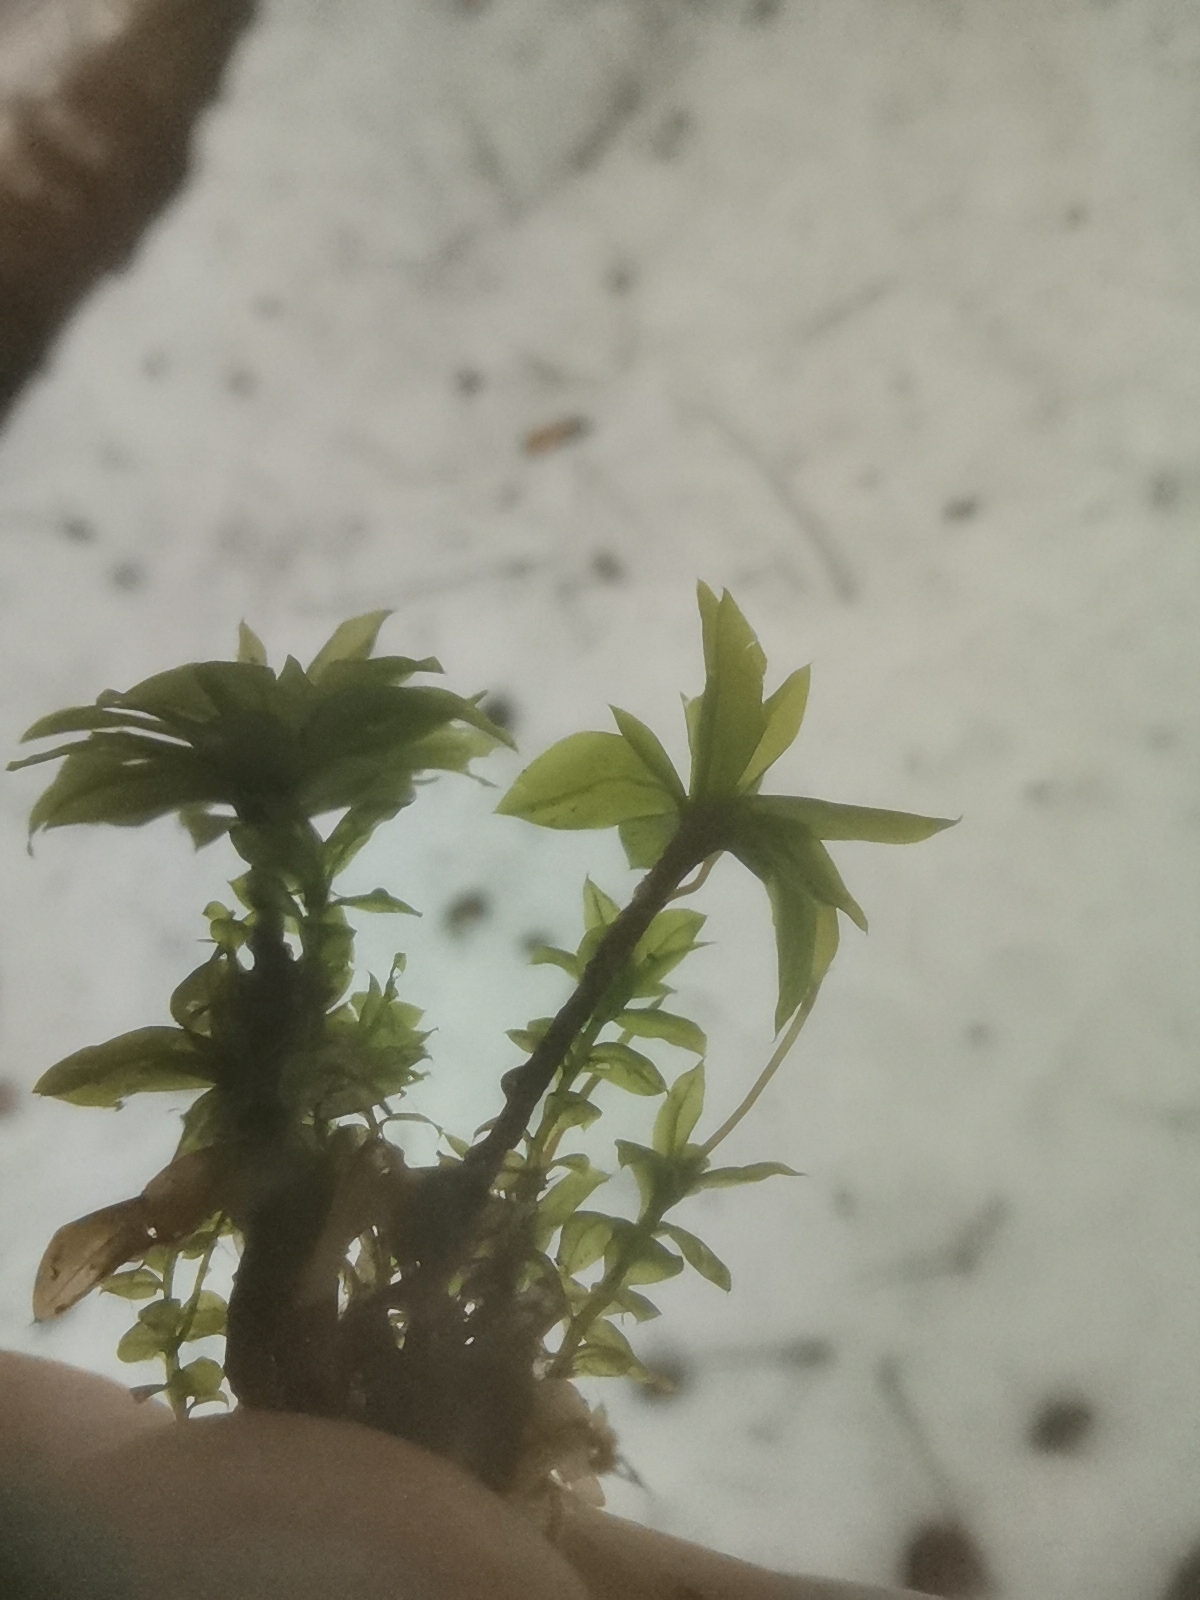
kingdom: Plantae
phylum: Bryophyta
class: Bryopsida
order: Bryales
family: Bryaceae
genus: Rhodobryum
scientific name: Rhodobryum roseum
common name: Rose-moss
